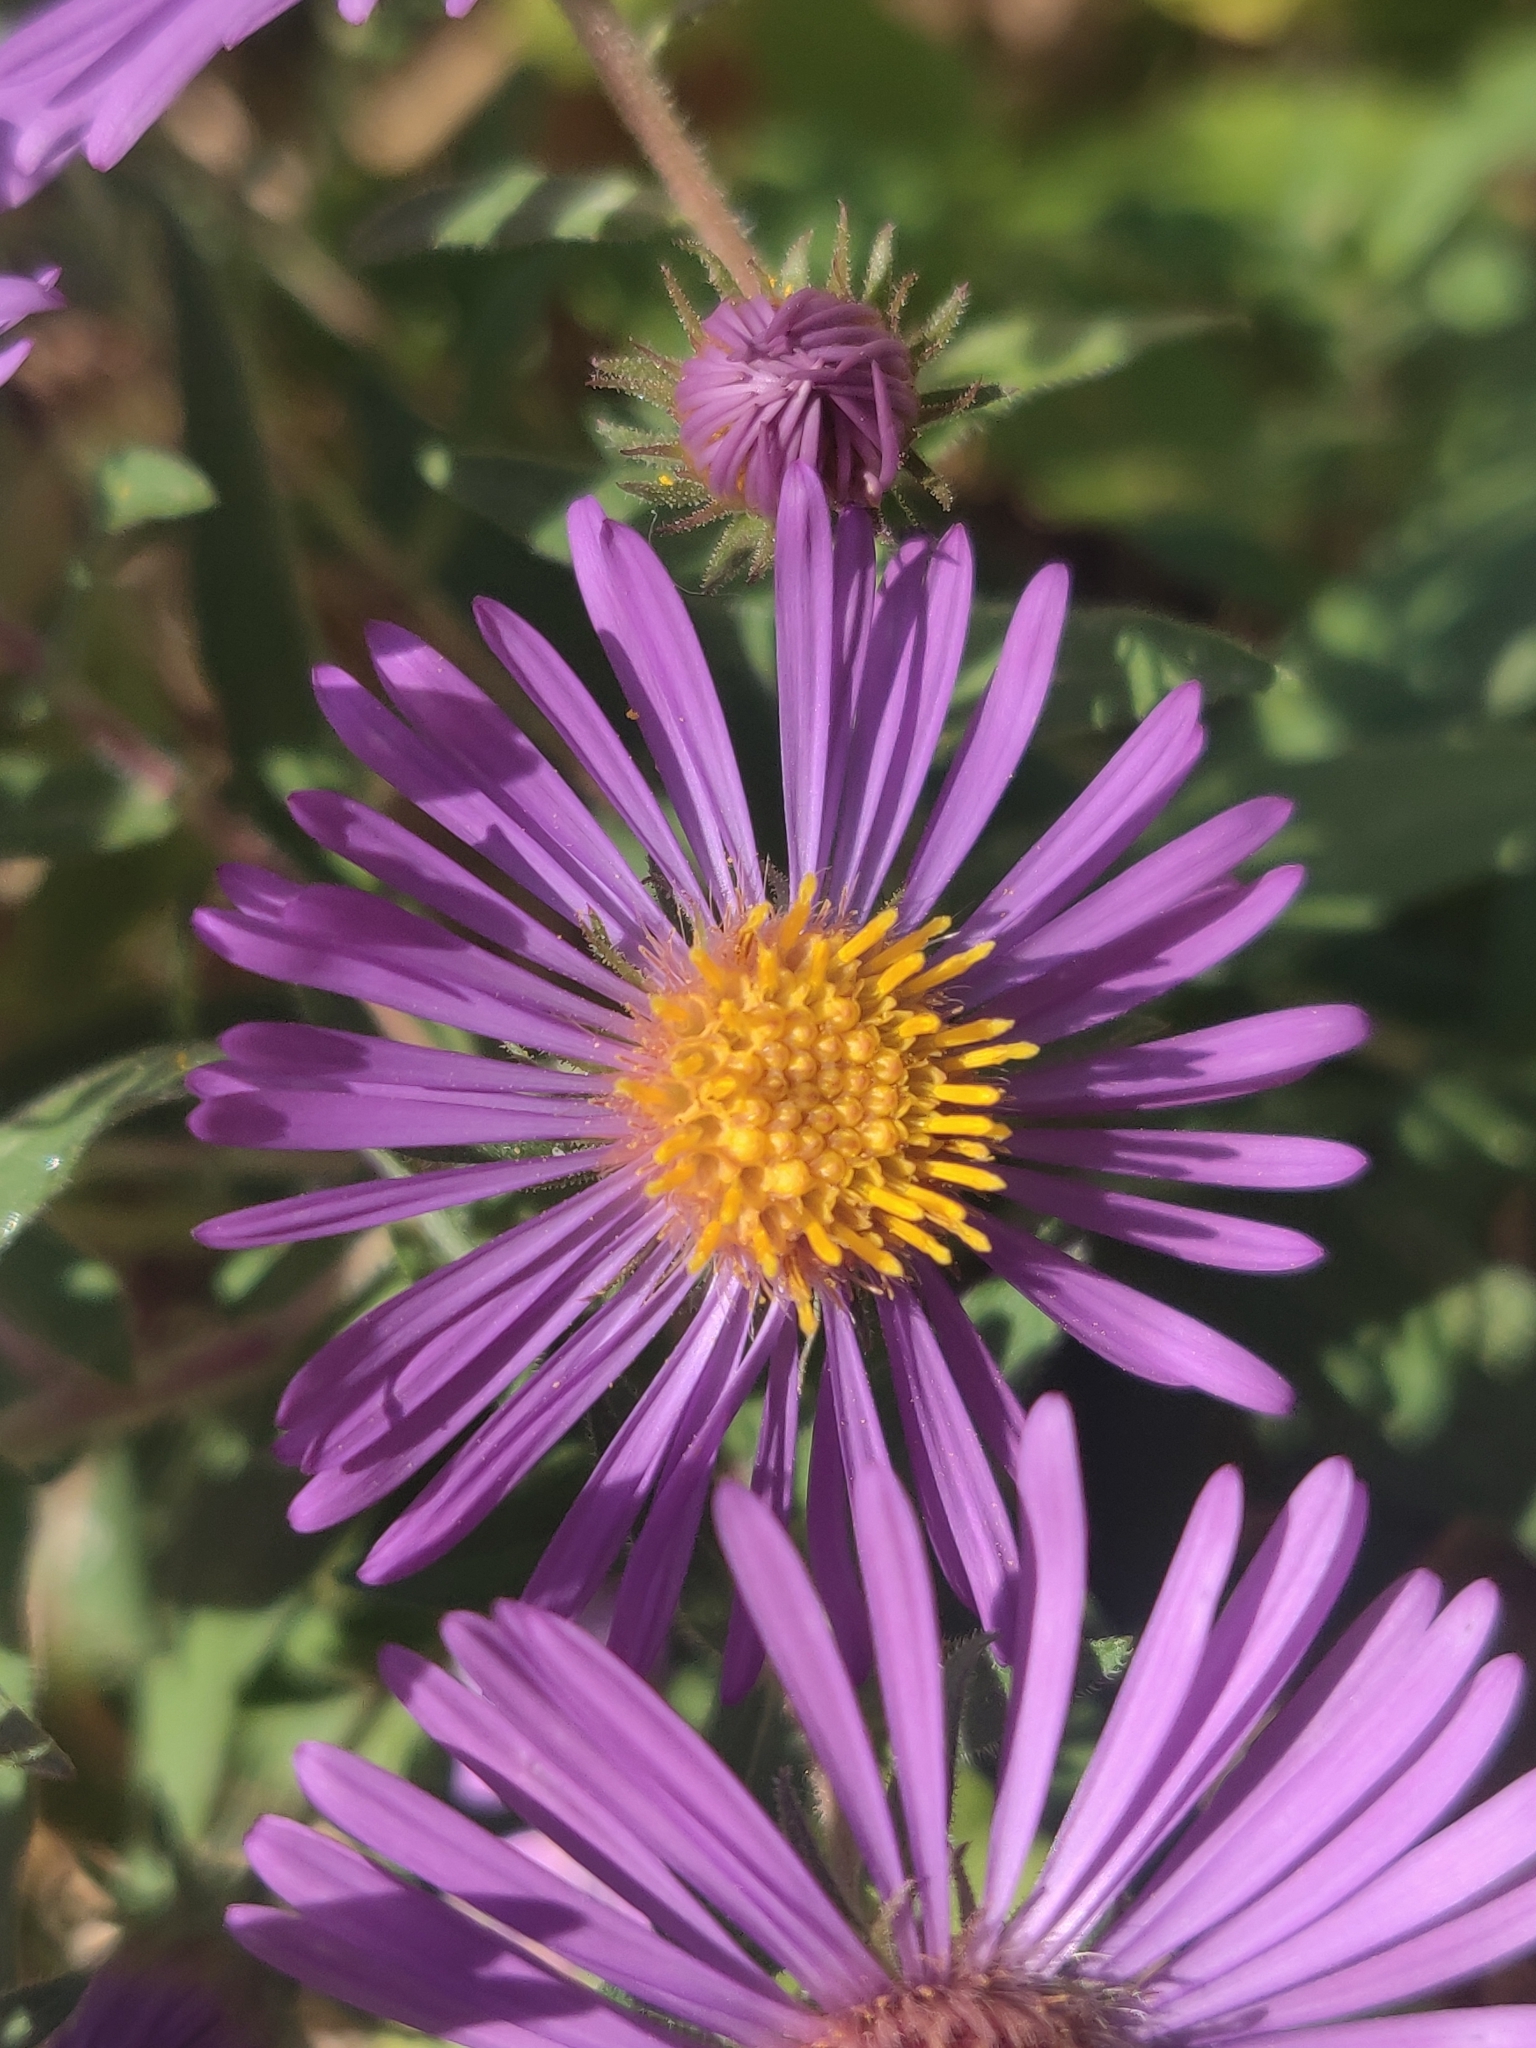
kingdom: Plantae
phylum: Tracheophyta
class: Magnoliopsida
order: Asterales
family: Asteraceae
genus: Symphyotrichum
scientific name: Symphyotrichum novae-angliae
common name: Michaelmas daisy
